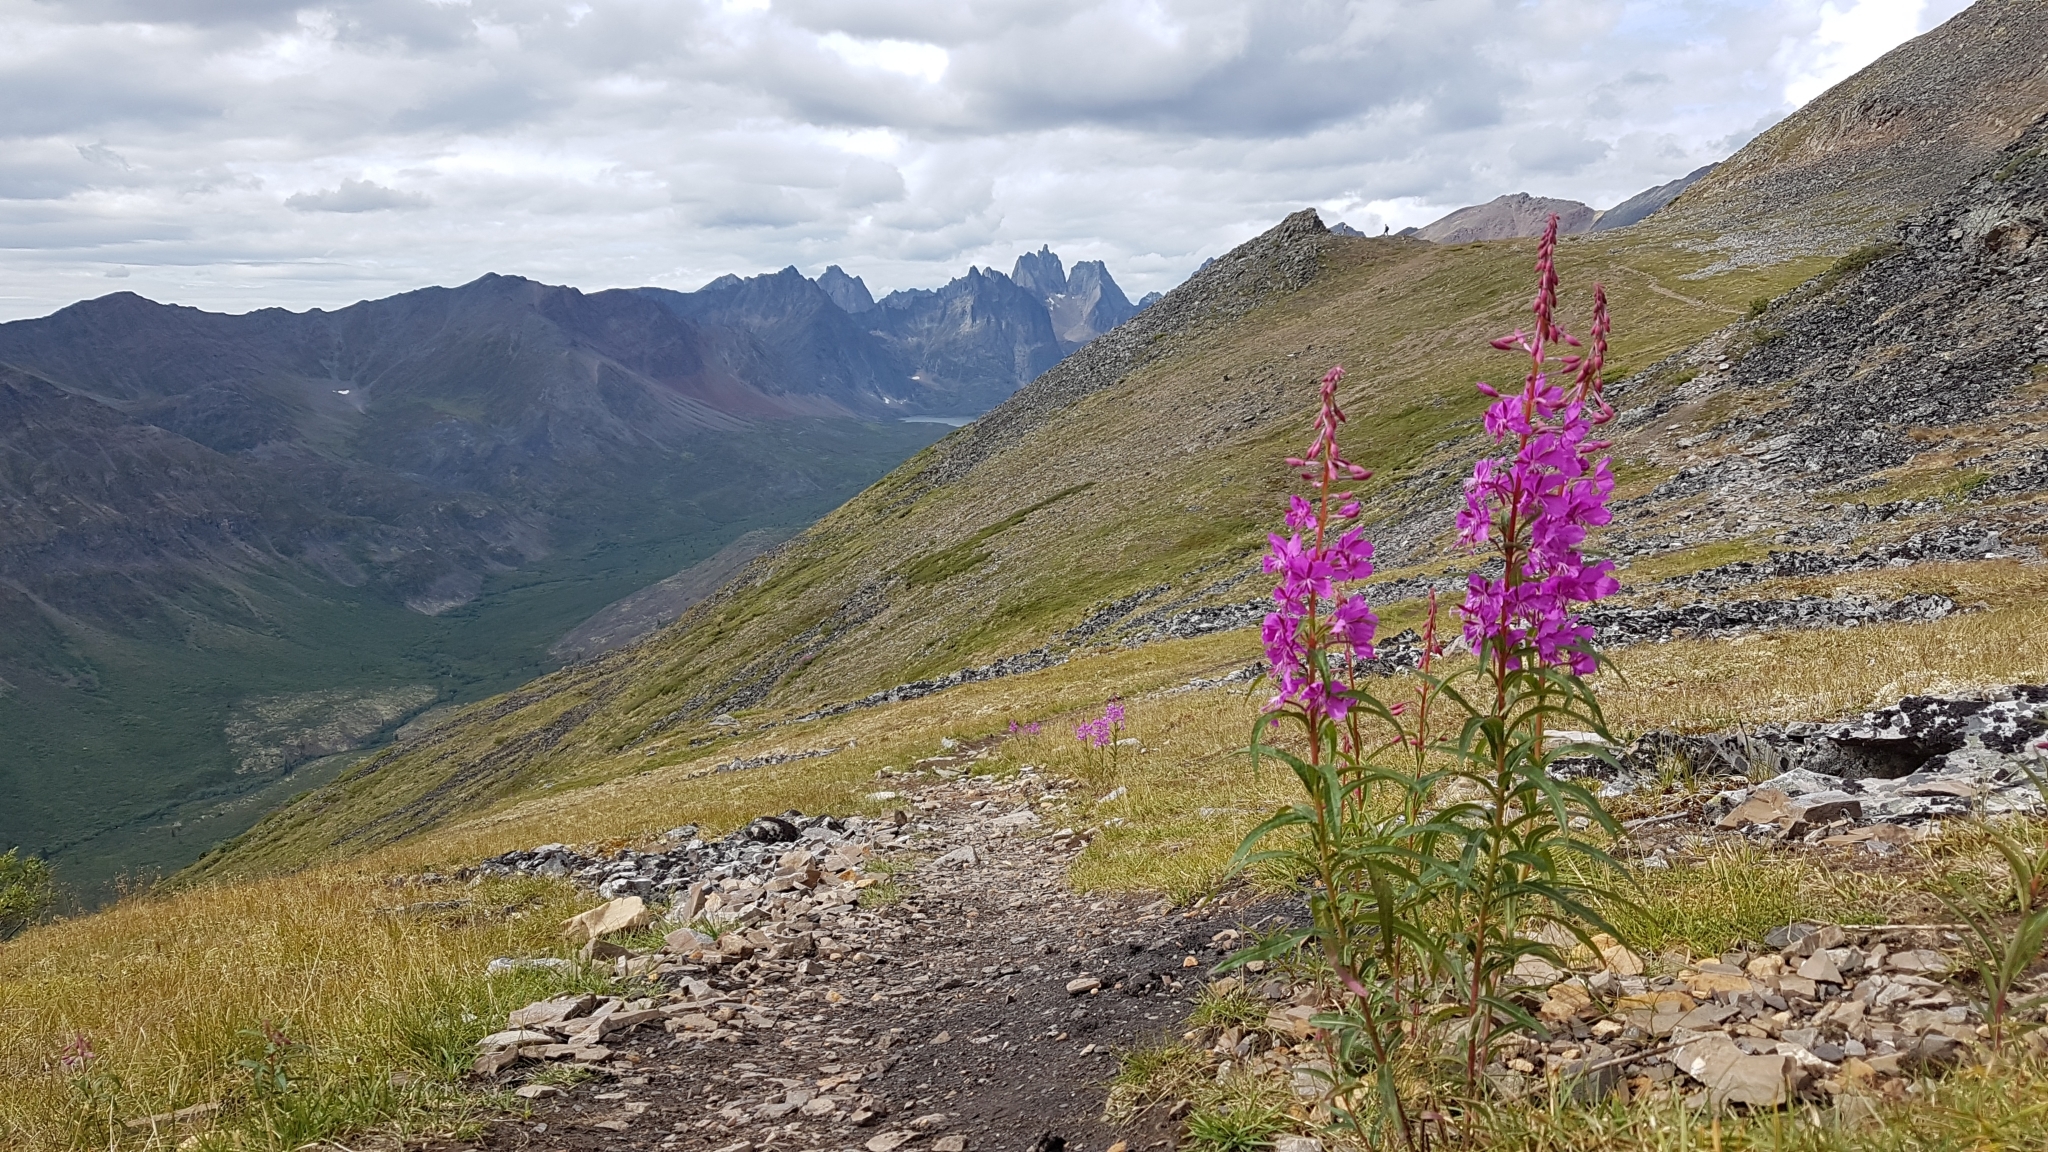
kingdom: Plantae
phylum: Tracheophyta
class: Magnoliopsida
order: Myrtales
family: Onagraceae
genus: Chamaenerion
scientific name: Chamaenerion angustifolium
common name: Fireweed
